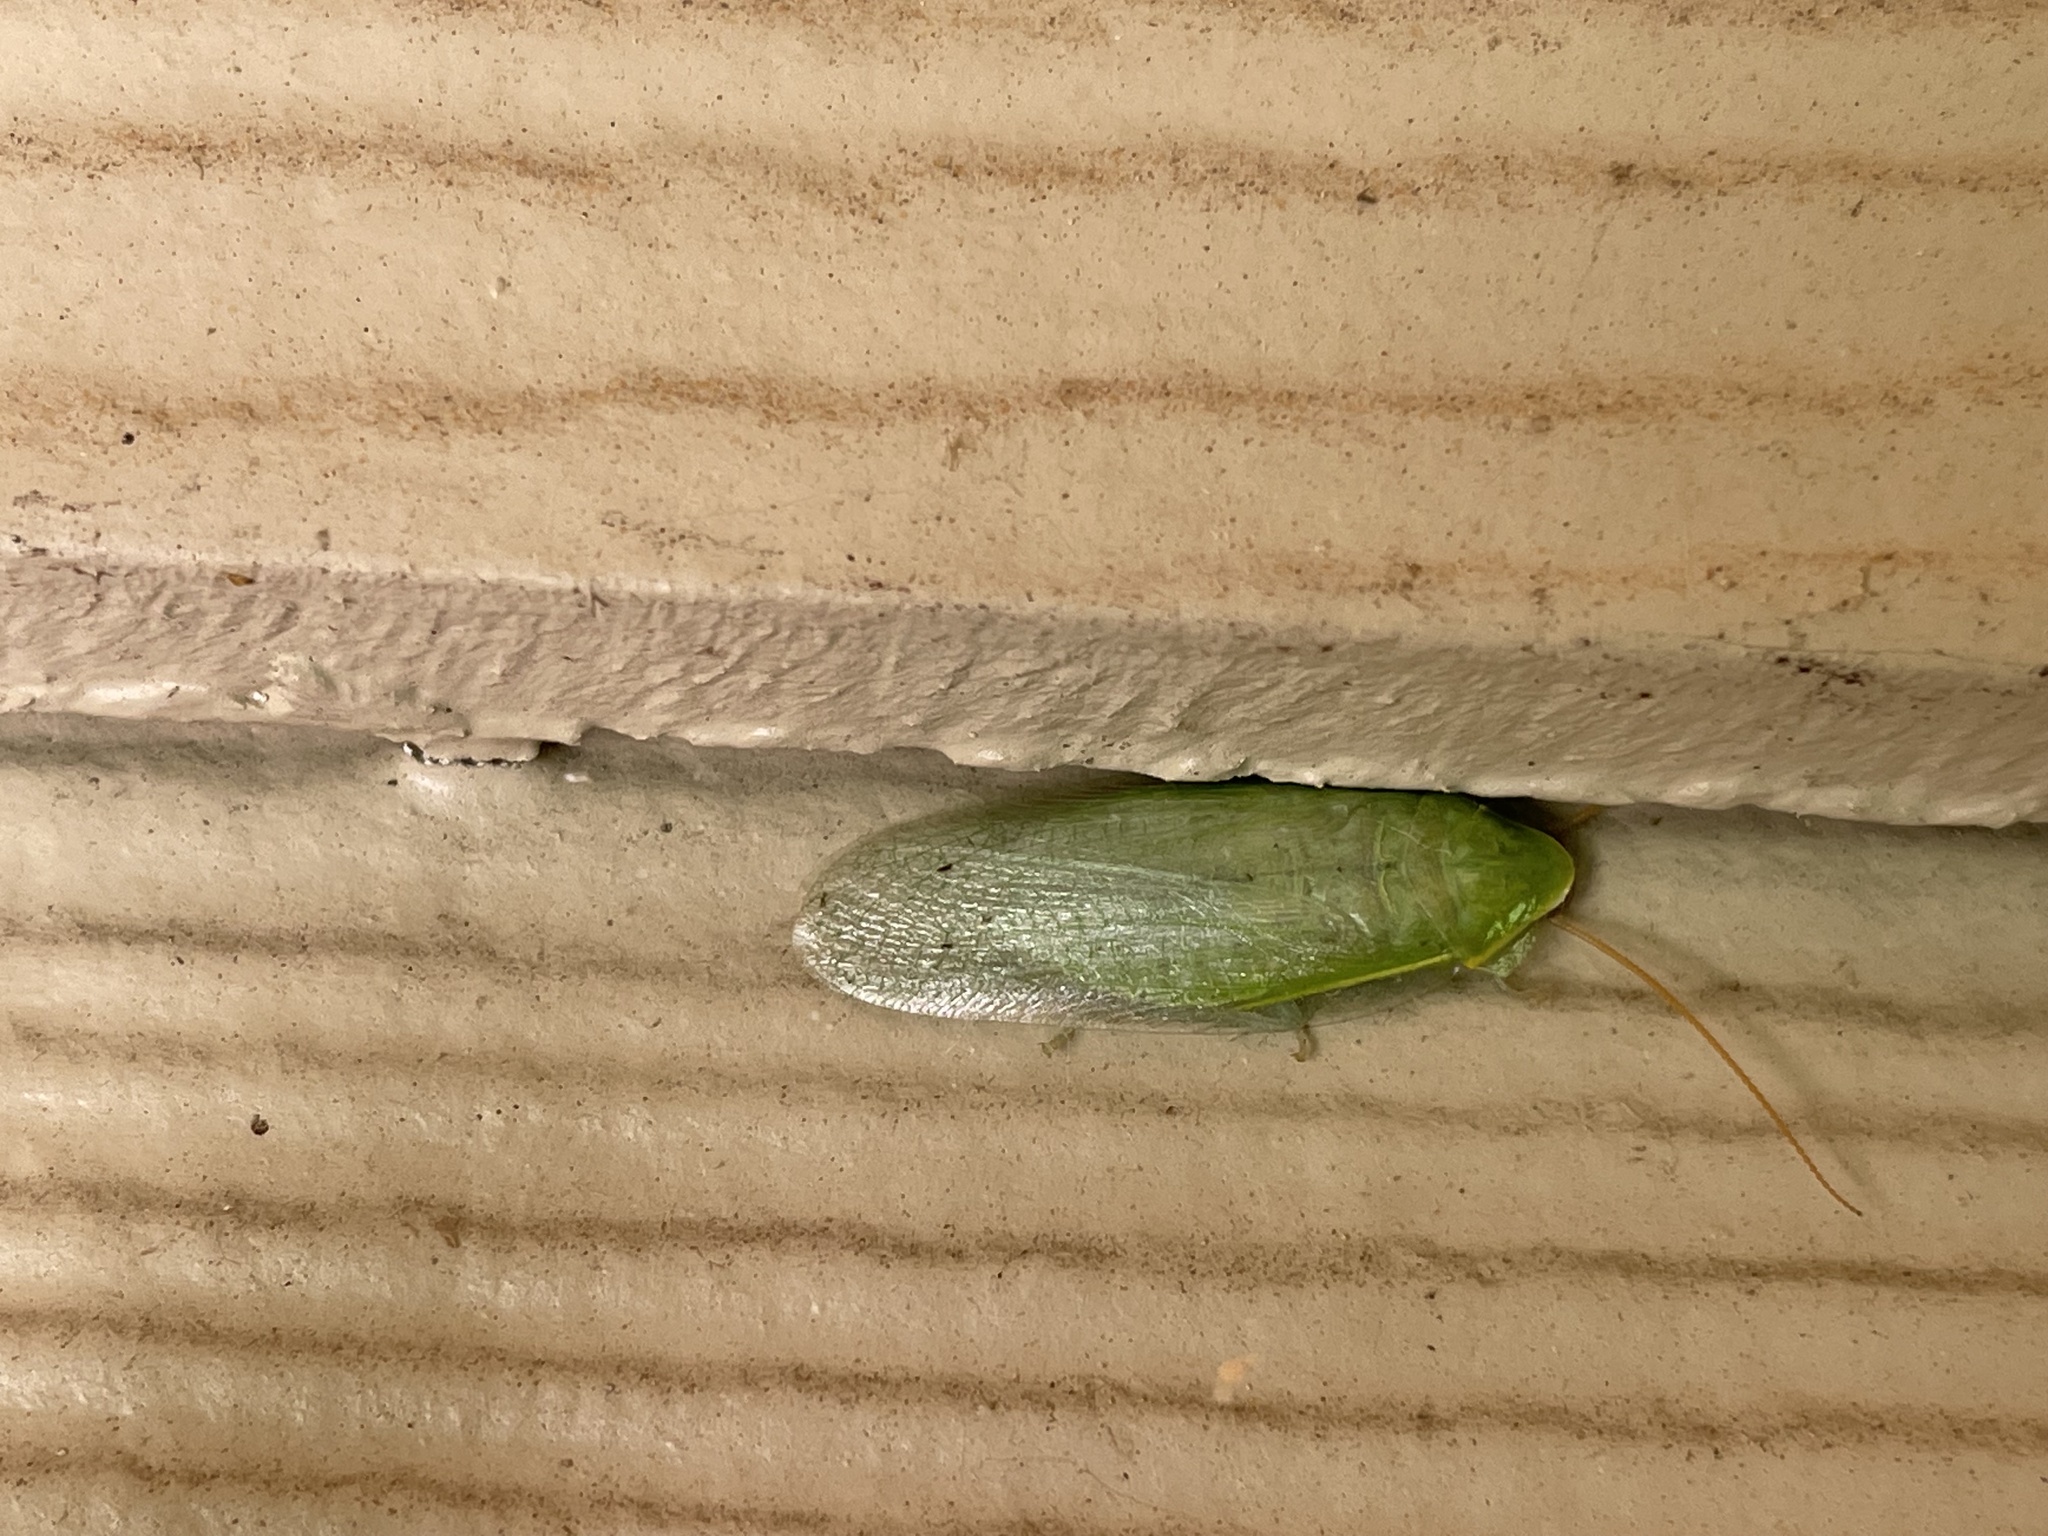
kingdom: Animalia
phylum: Arthropoda
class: Insecta
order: Blattodea
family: Blaberidae
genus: Panchlora
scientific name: Panchlora nivea
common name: Cuban cockroach
